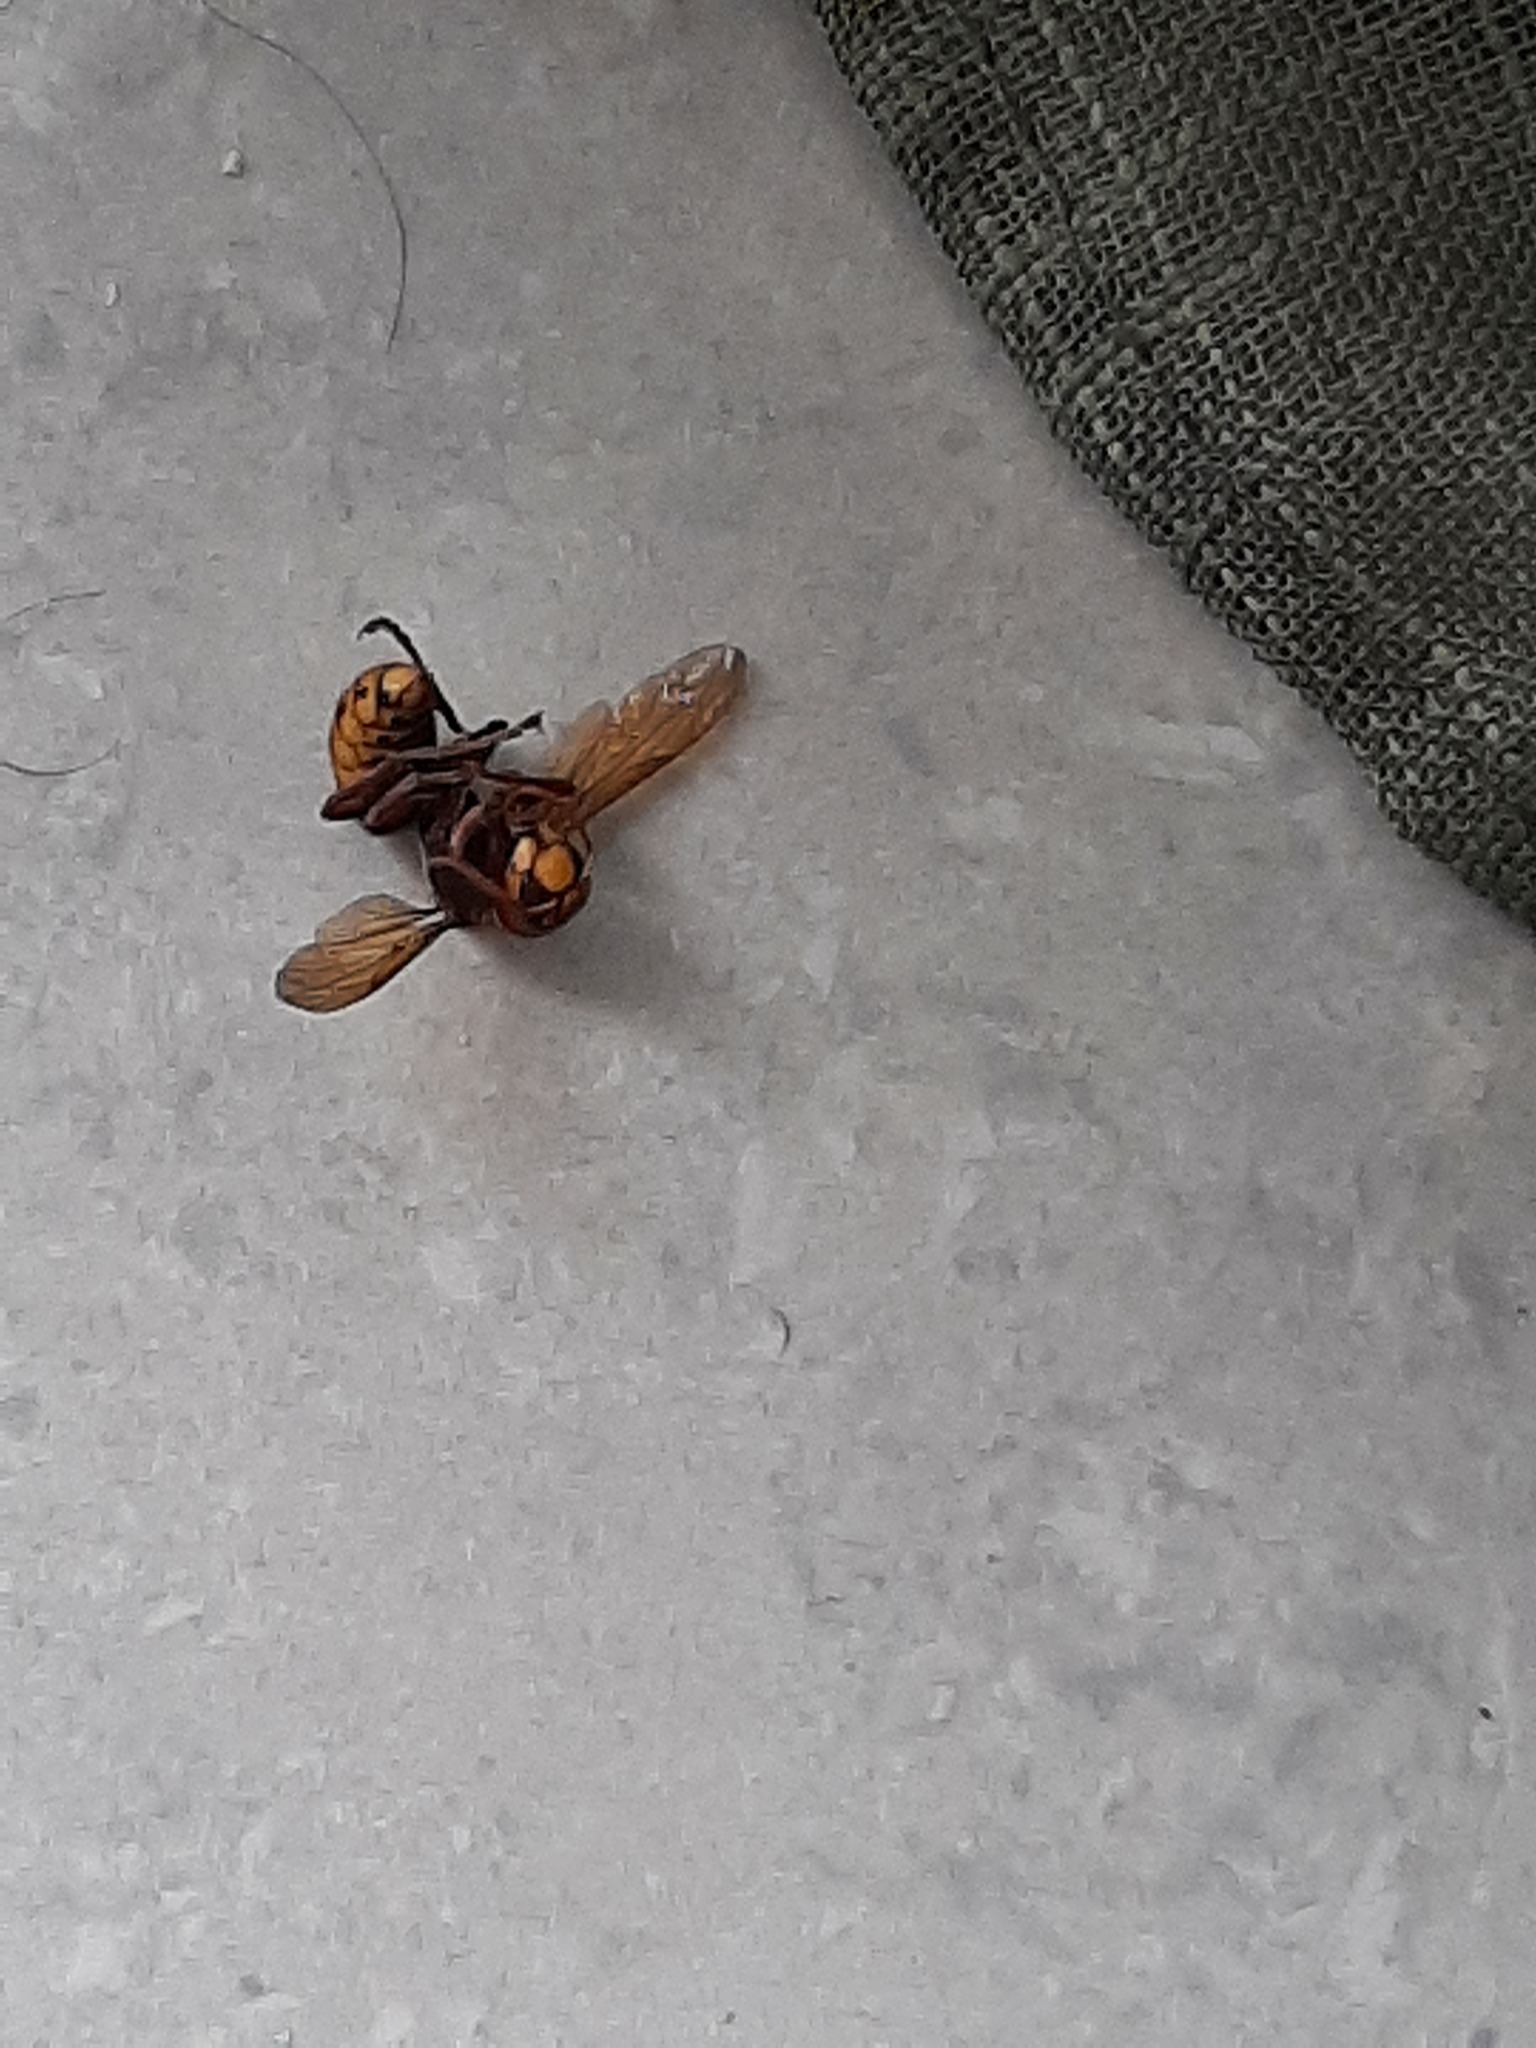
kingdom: Animalia
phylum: Arthropoda
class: Insecta
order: Hymenoptera
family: Vespidae
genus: Vespa
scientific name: Vespa crabro
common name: Hornet
